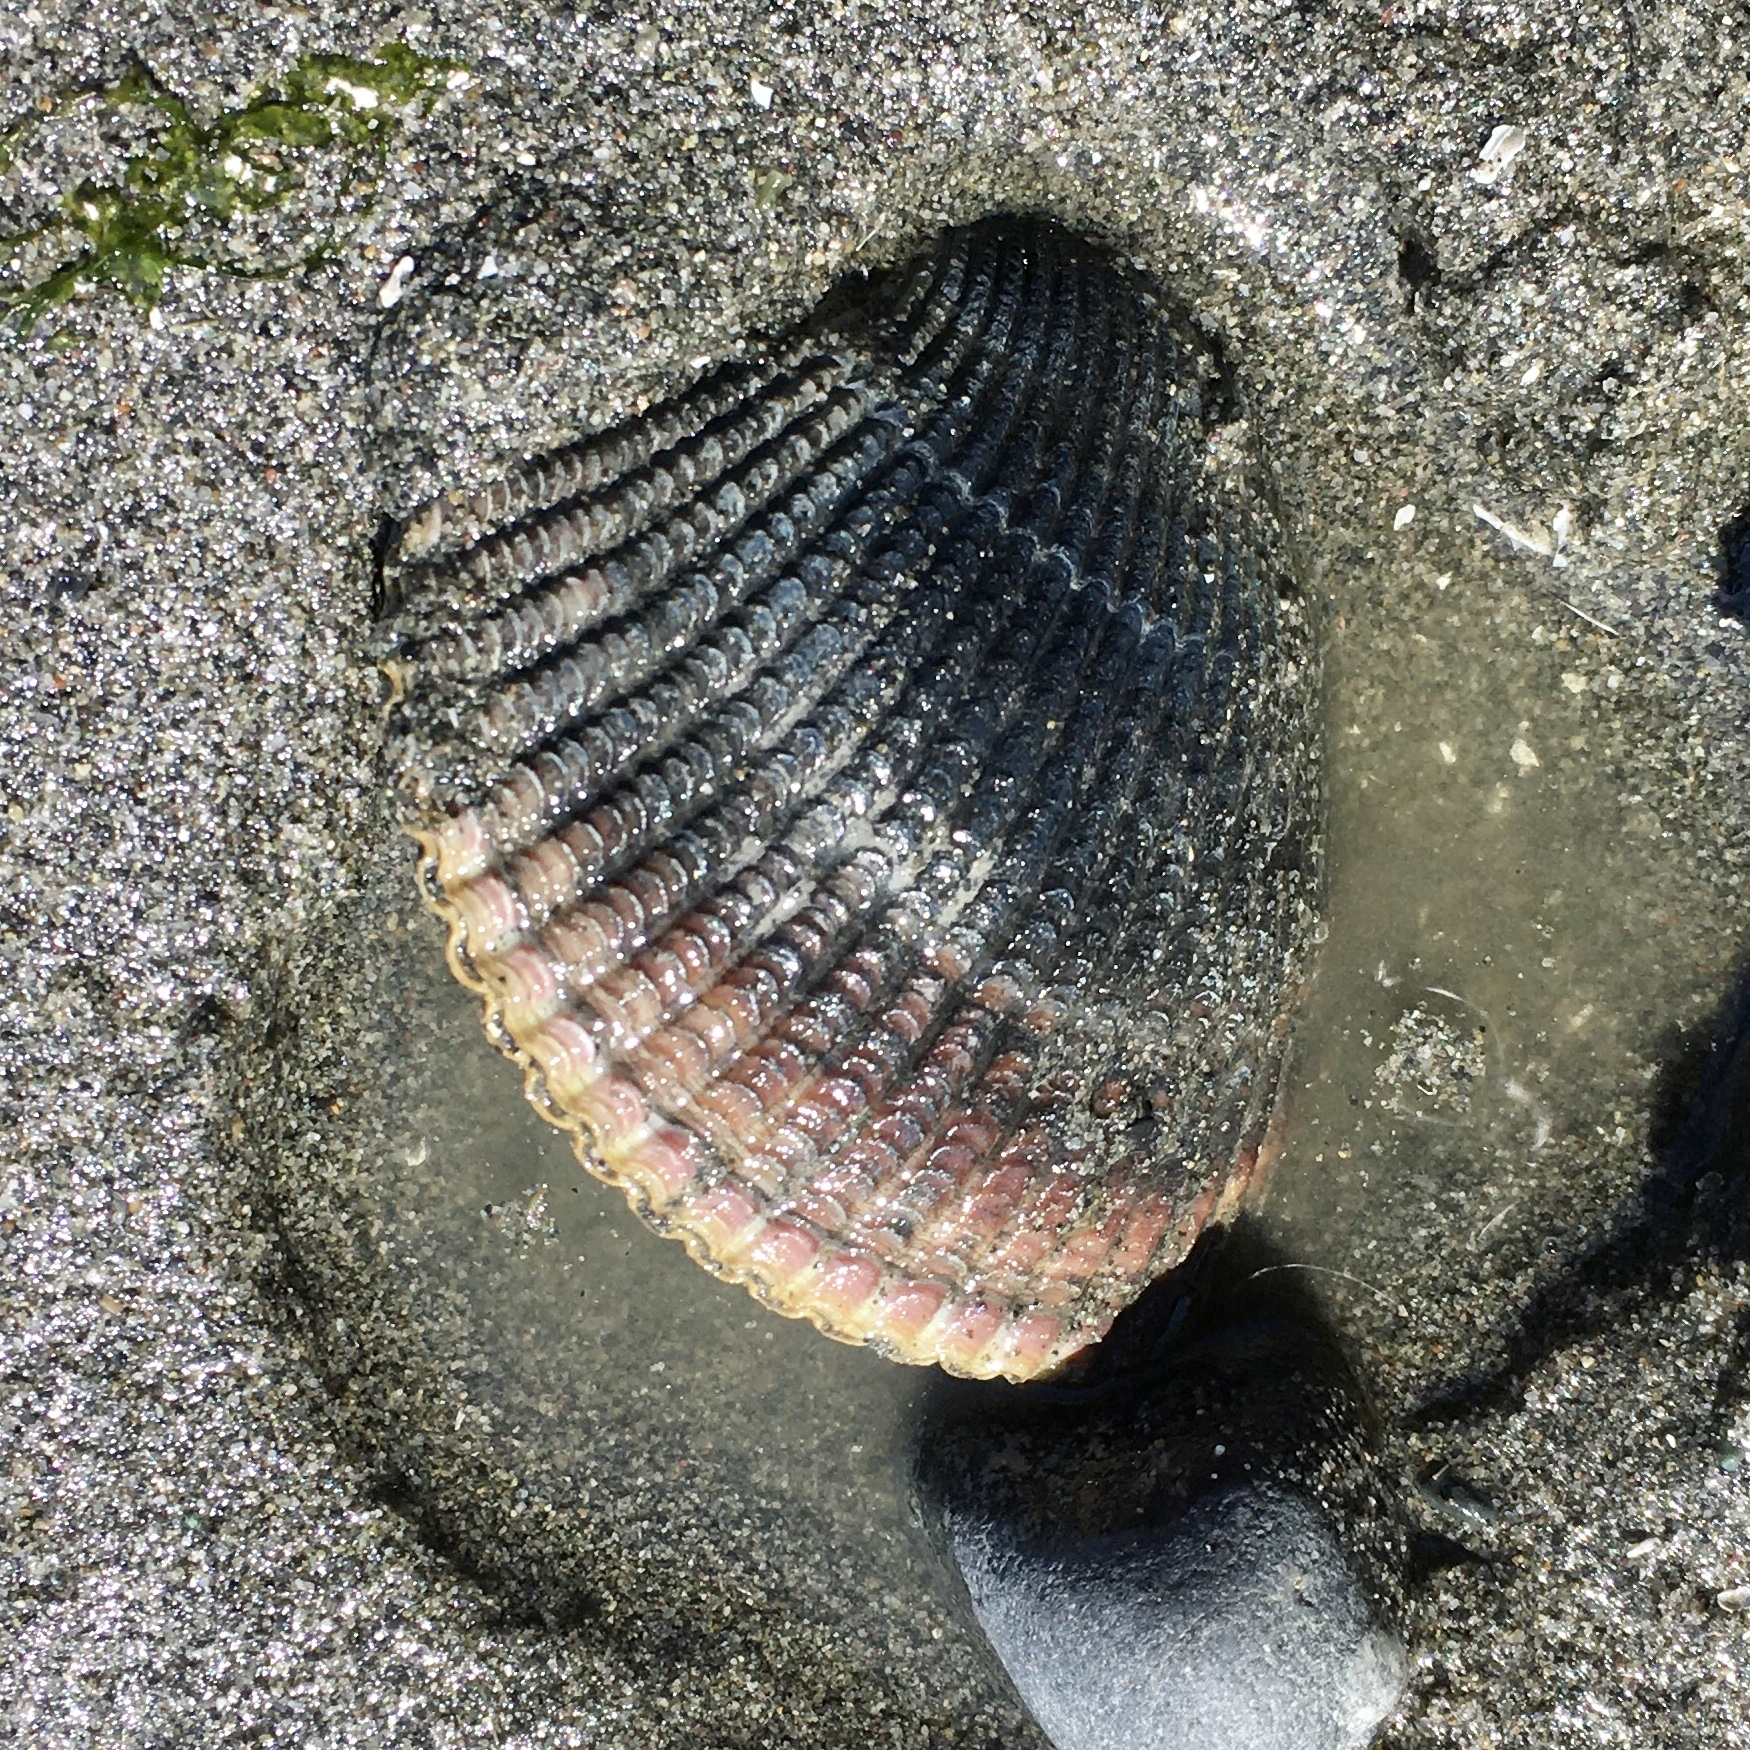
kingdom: Animalia
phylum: Mollusca
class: Bivalvia
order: Cardiida
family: Cardiidae
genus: Clinocardium
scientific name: Clinocardium nuttallii
